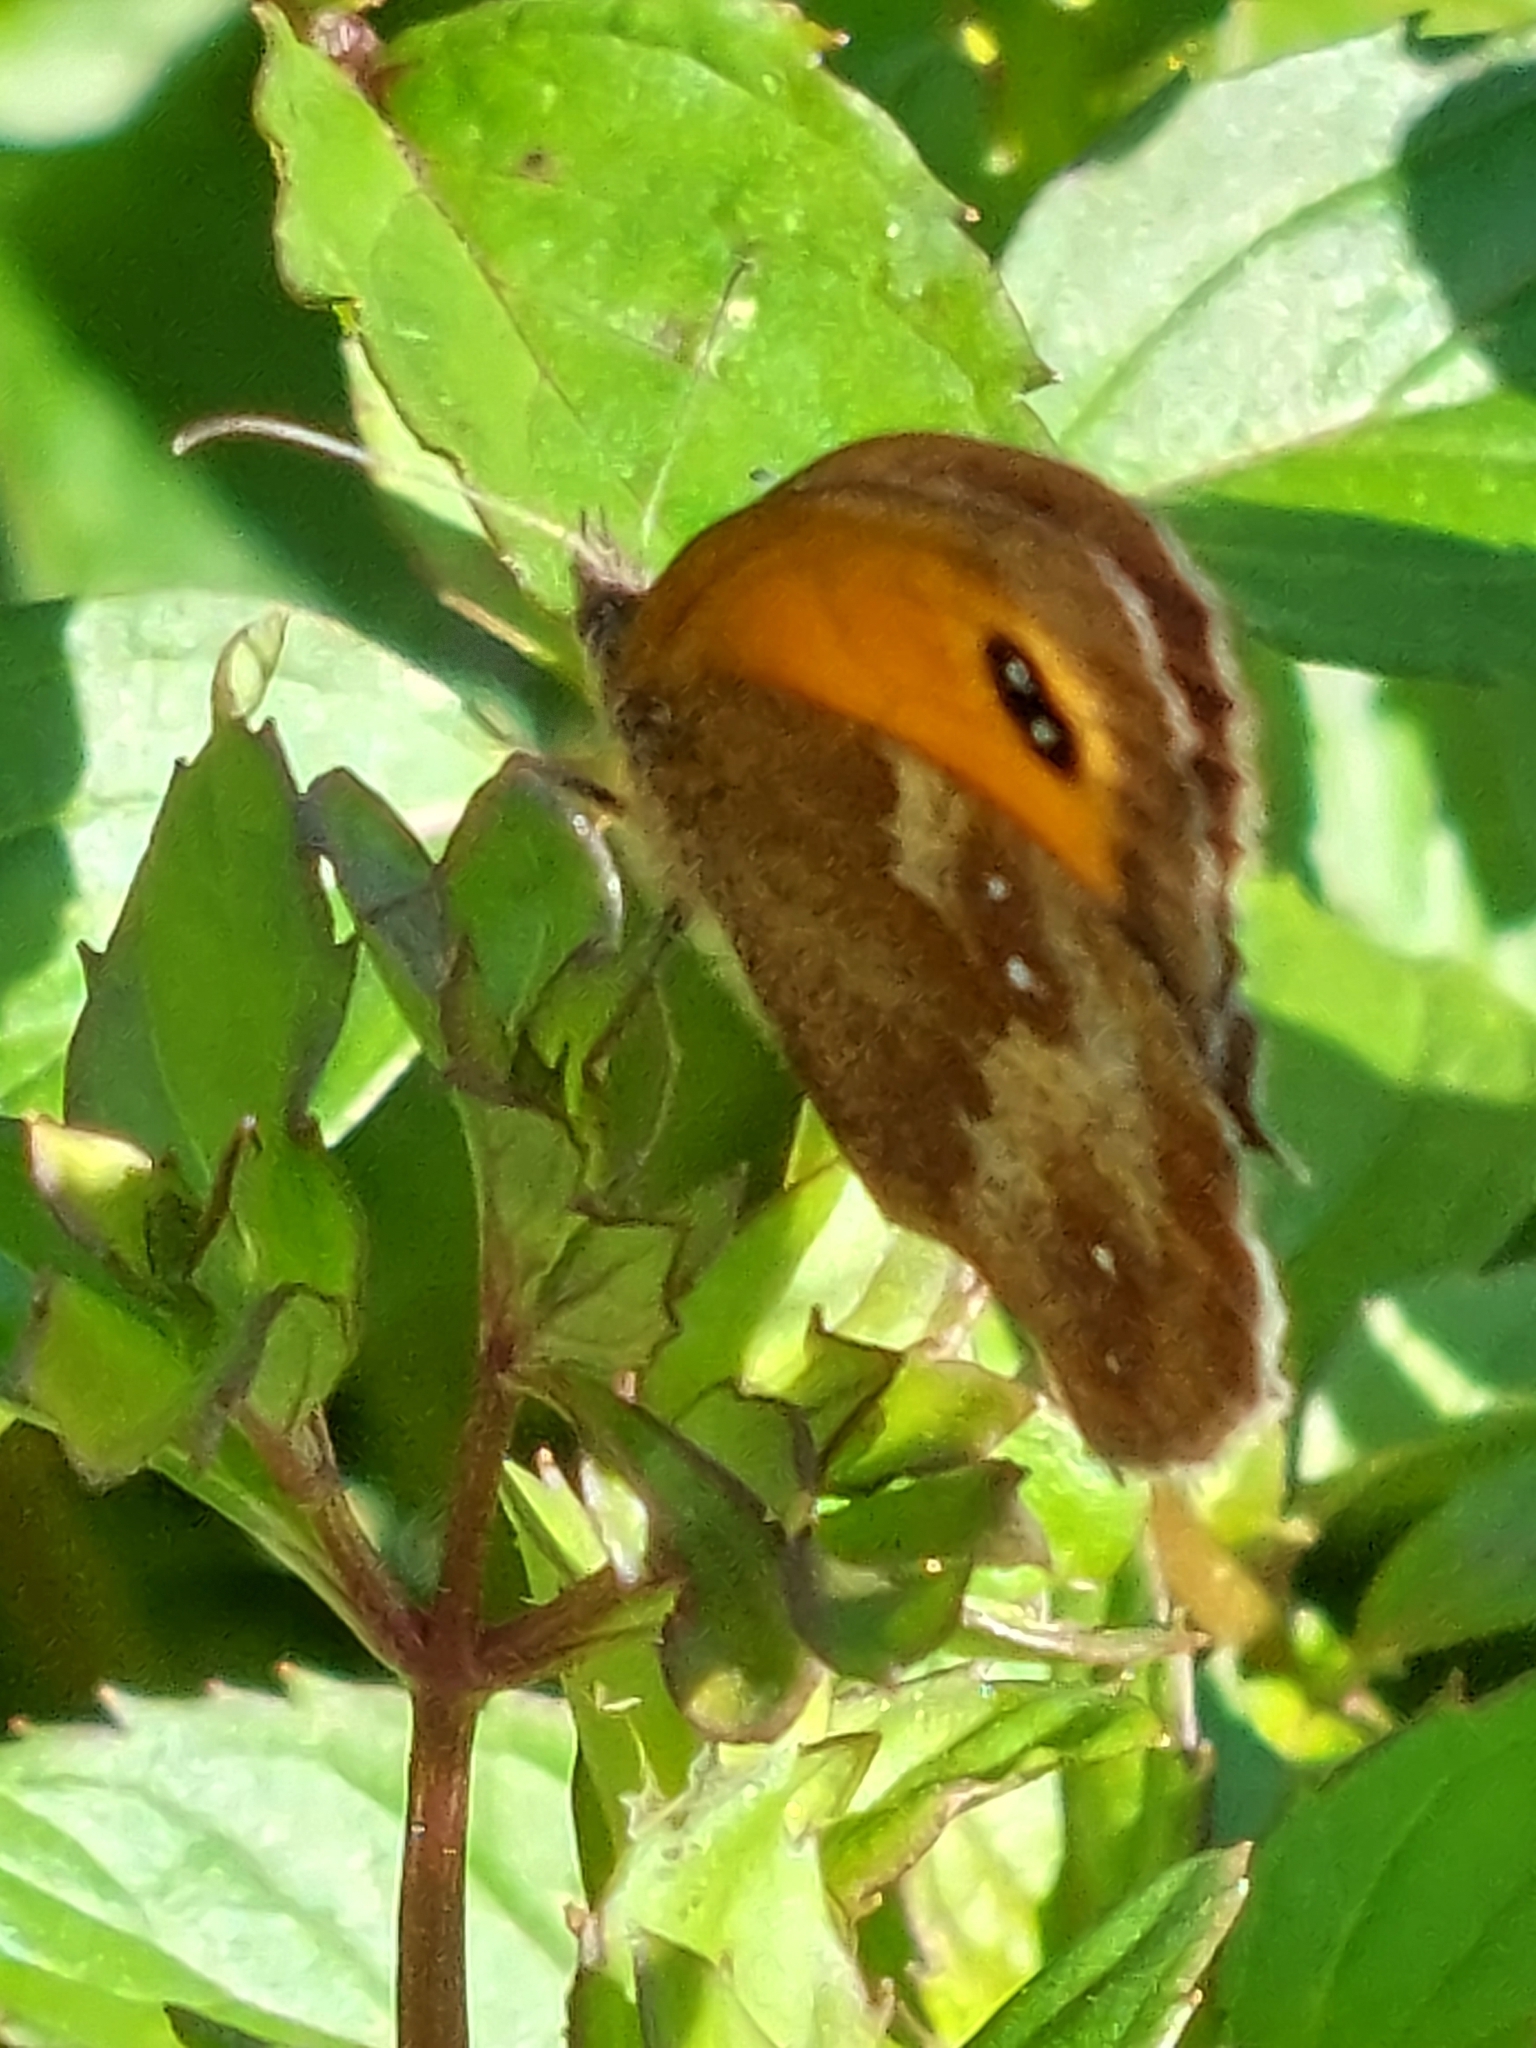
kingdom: Animalia
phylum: Arthropoda
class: Insecta
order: Lepidoptera
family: Nymphalidae
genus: Pyronia
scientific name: Pyronia tithonus
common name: Gatekeeper
